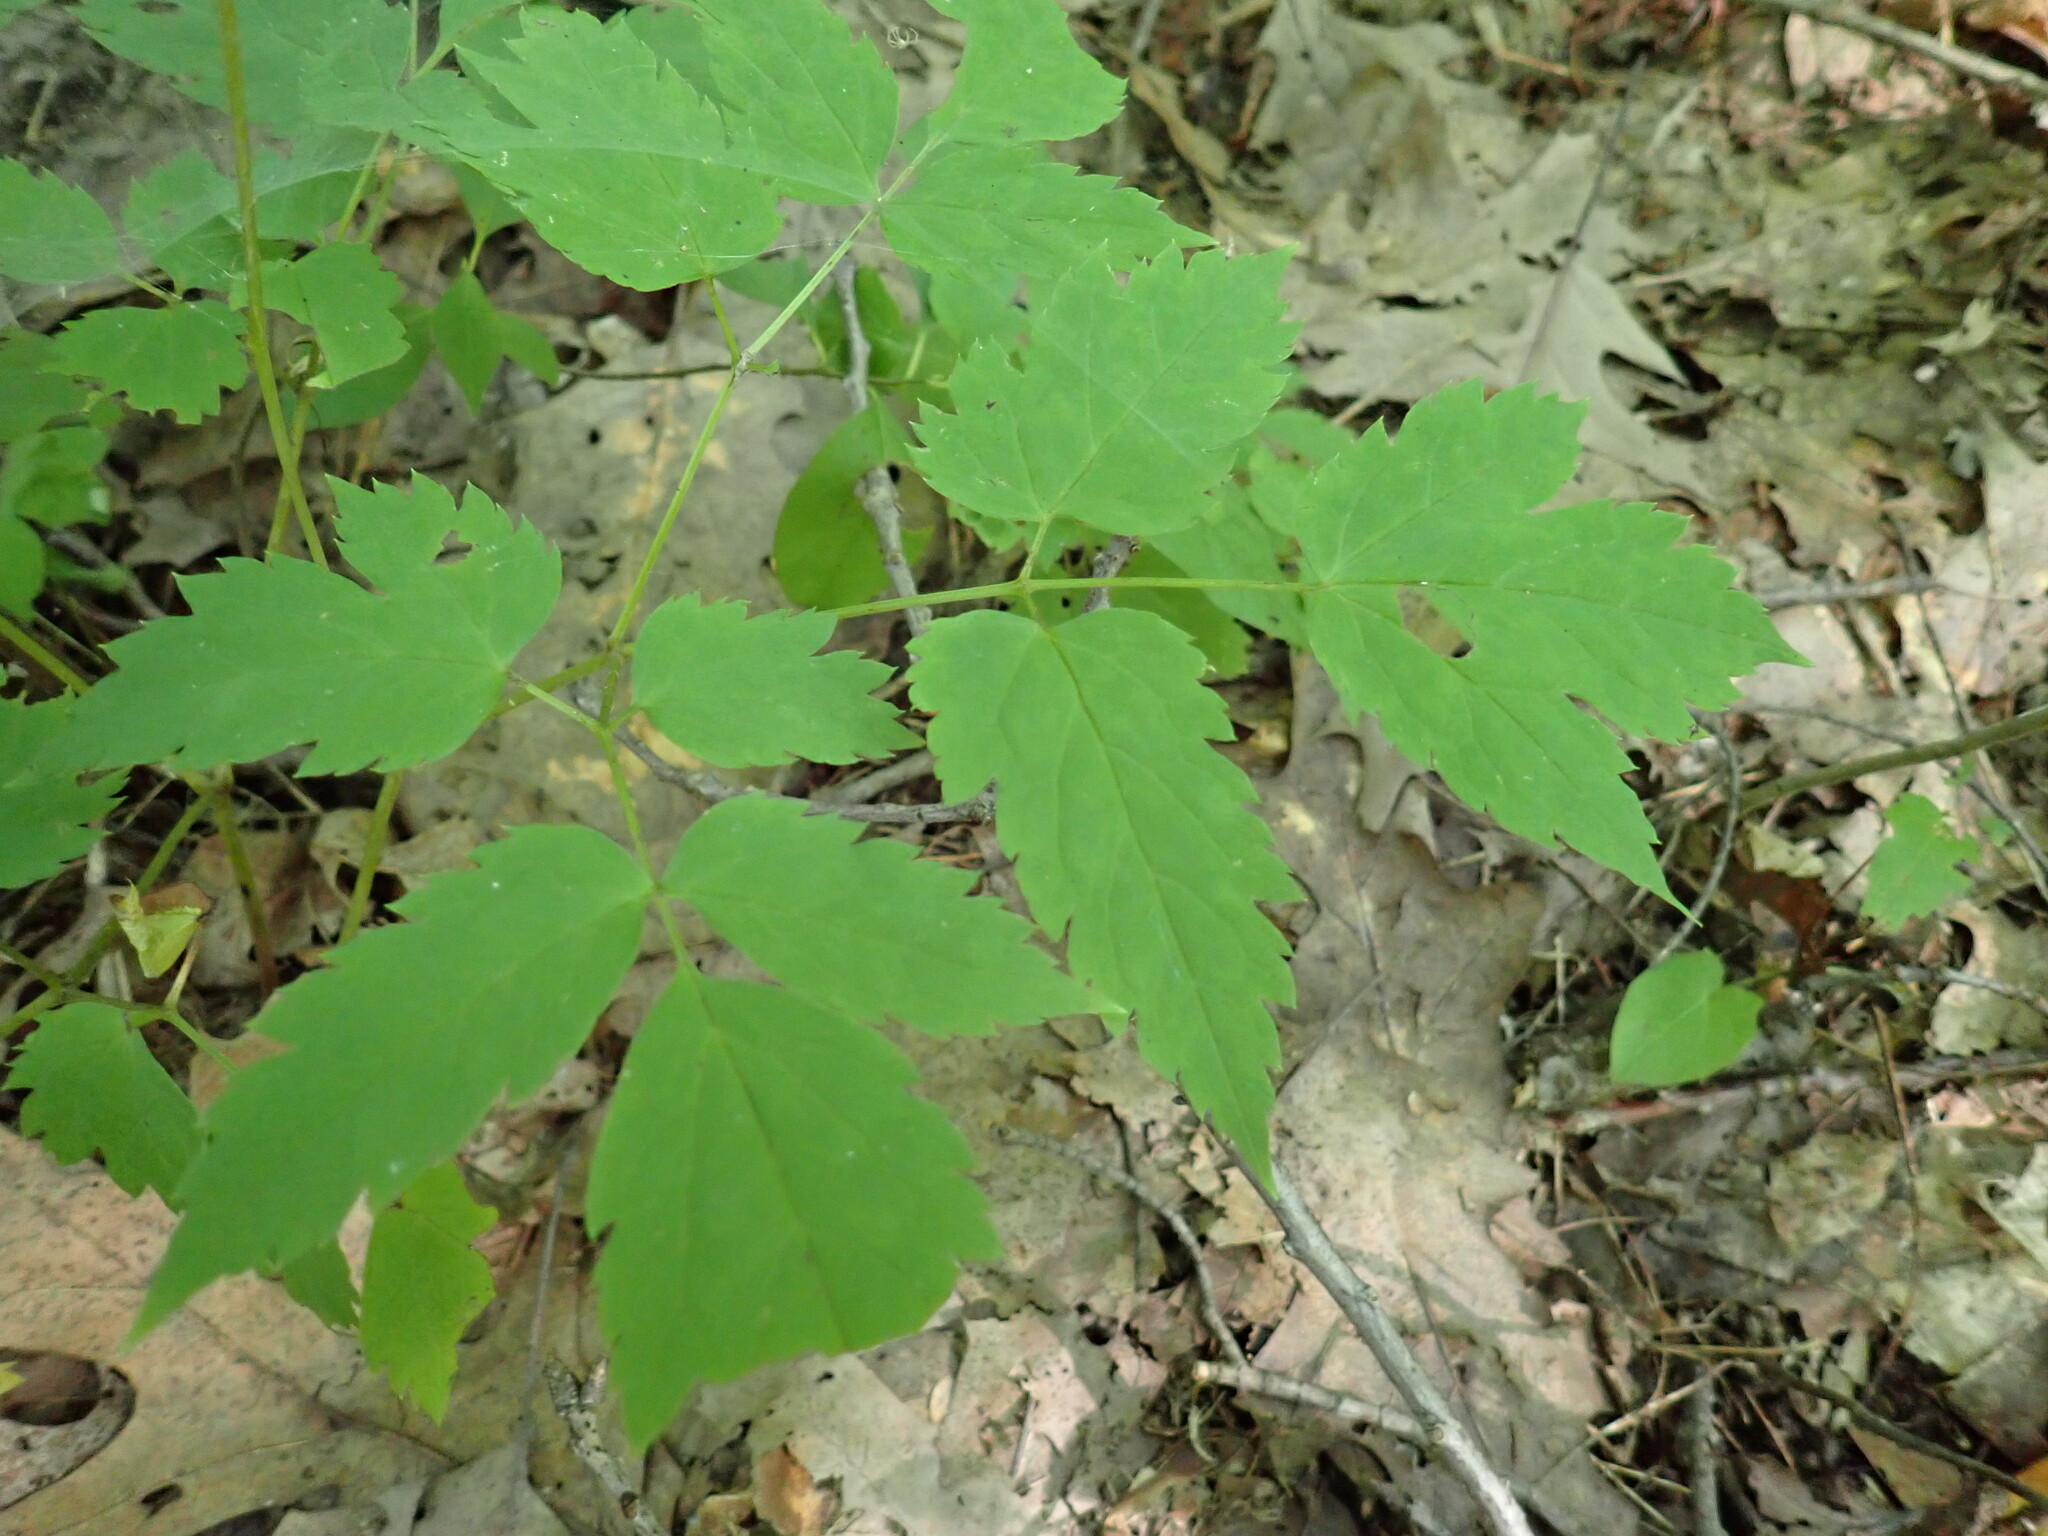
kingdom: Plantae
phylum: Tracheophyta
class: Magnoliopsida
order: Ranunculales
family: Ranunculaceae
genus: Actaea
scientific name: Actaea pachypoda
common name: Doll's-eyes
